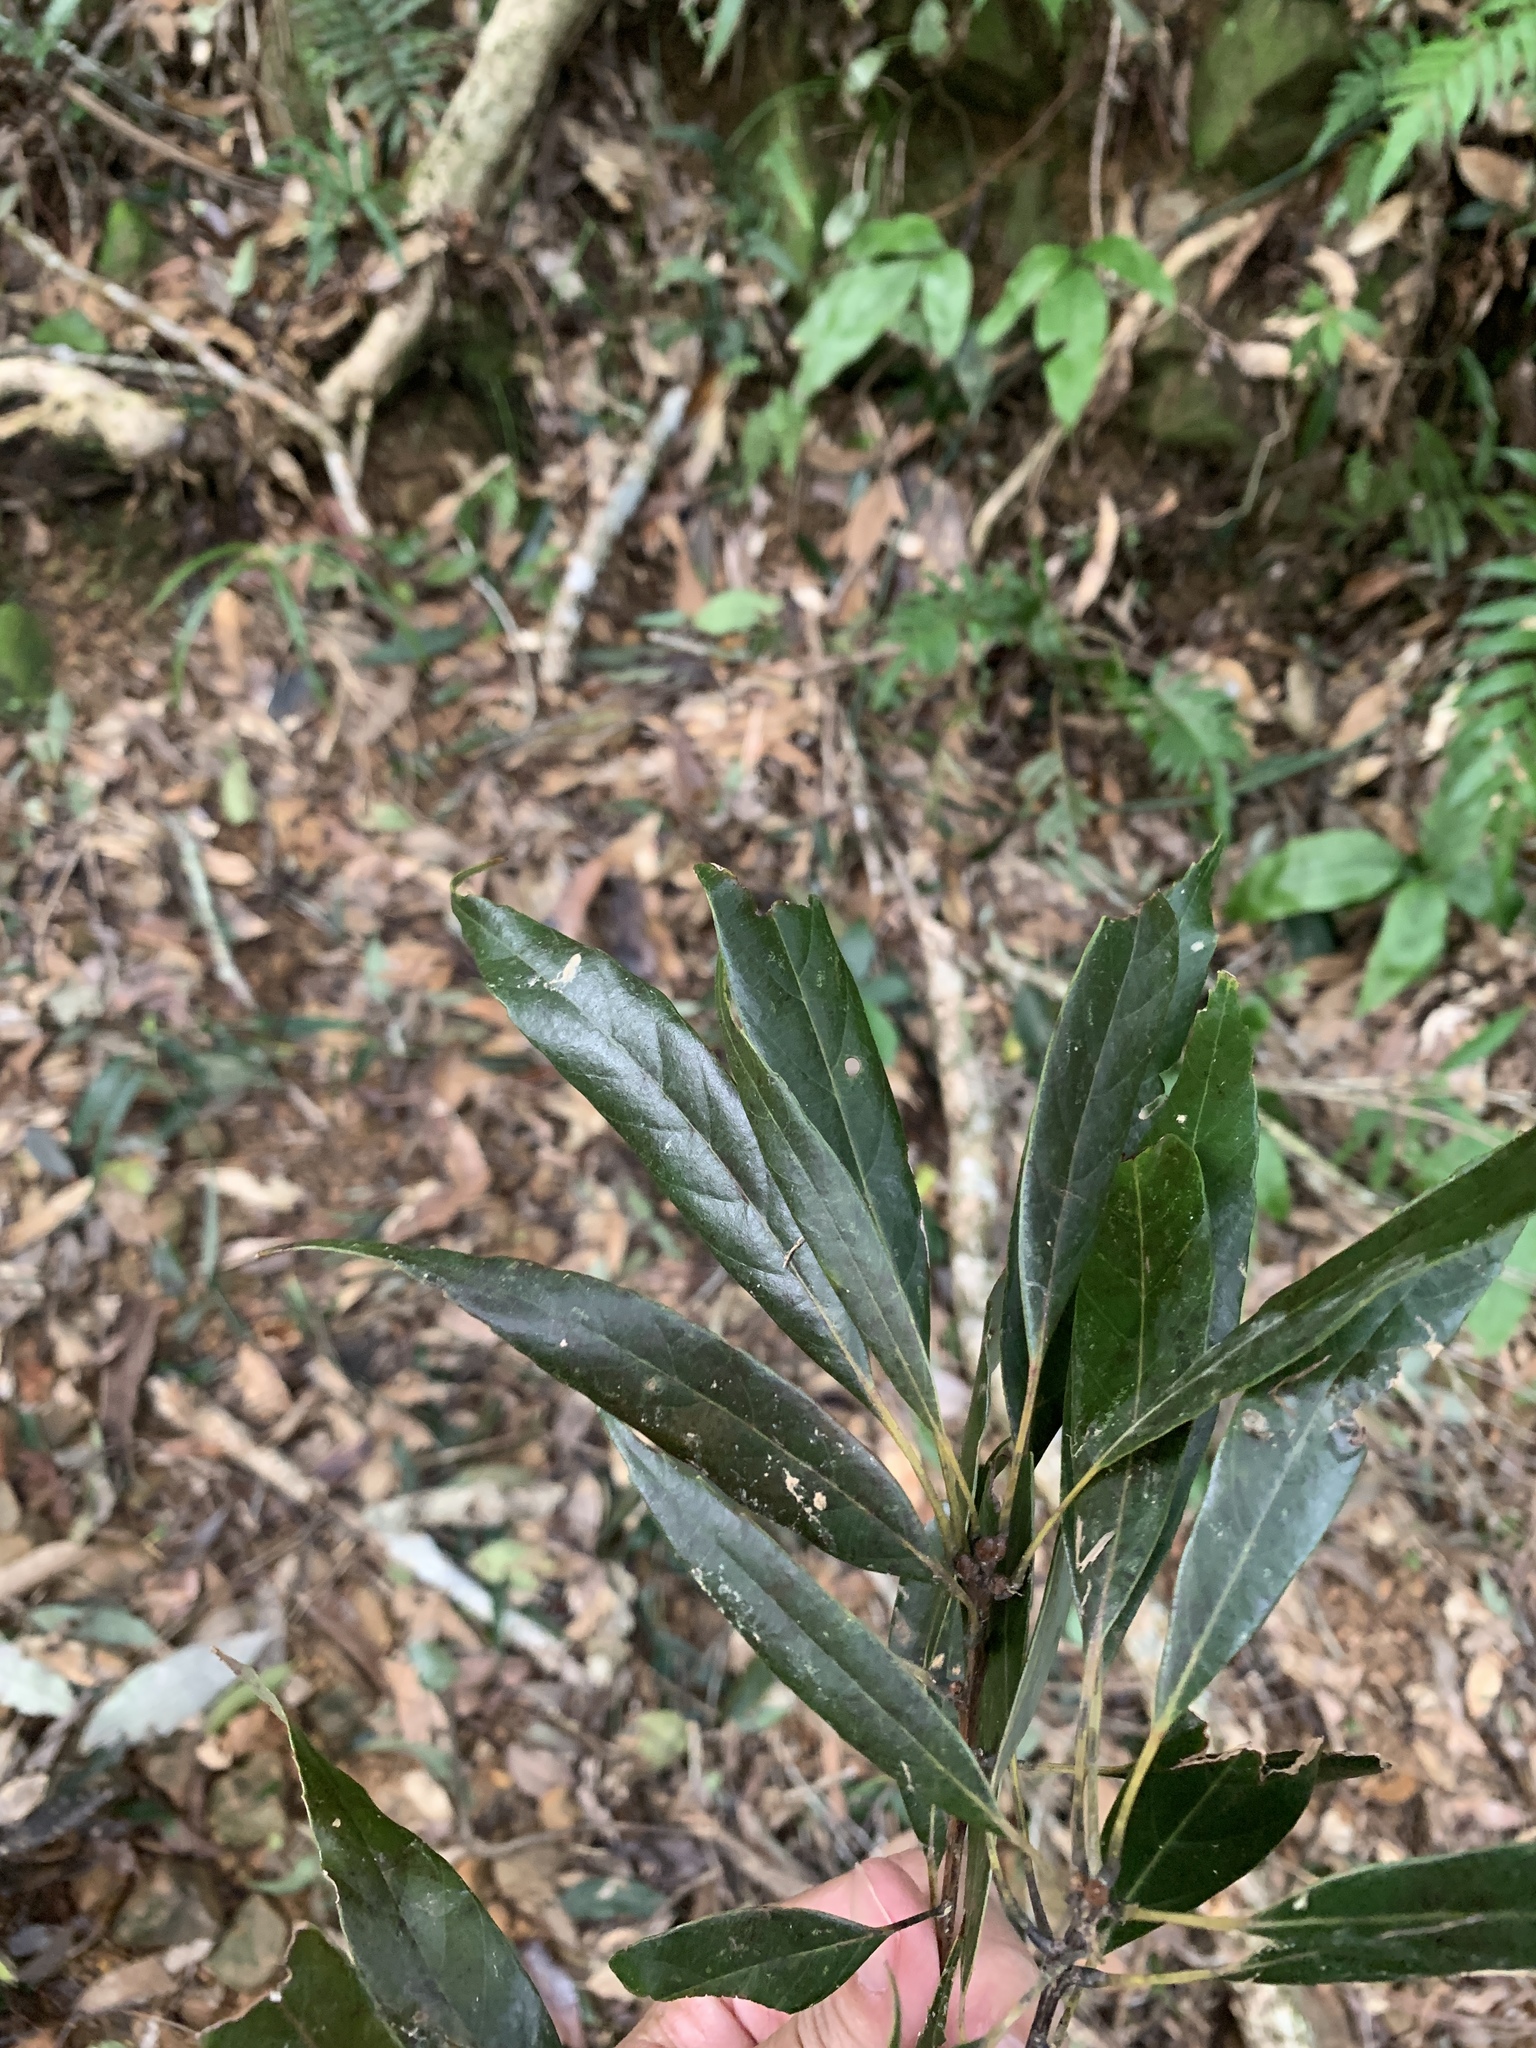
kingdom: Plantae
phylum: Tracheophyta
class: Magnoliopsida
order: Fagales
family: Fagaceae
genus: Quercus
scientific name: Quercus pachyloma
